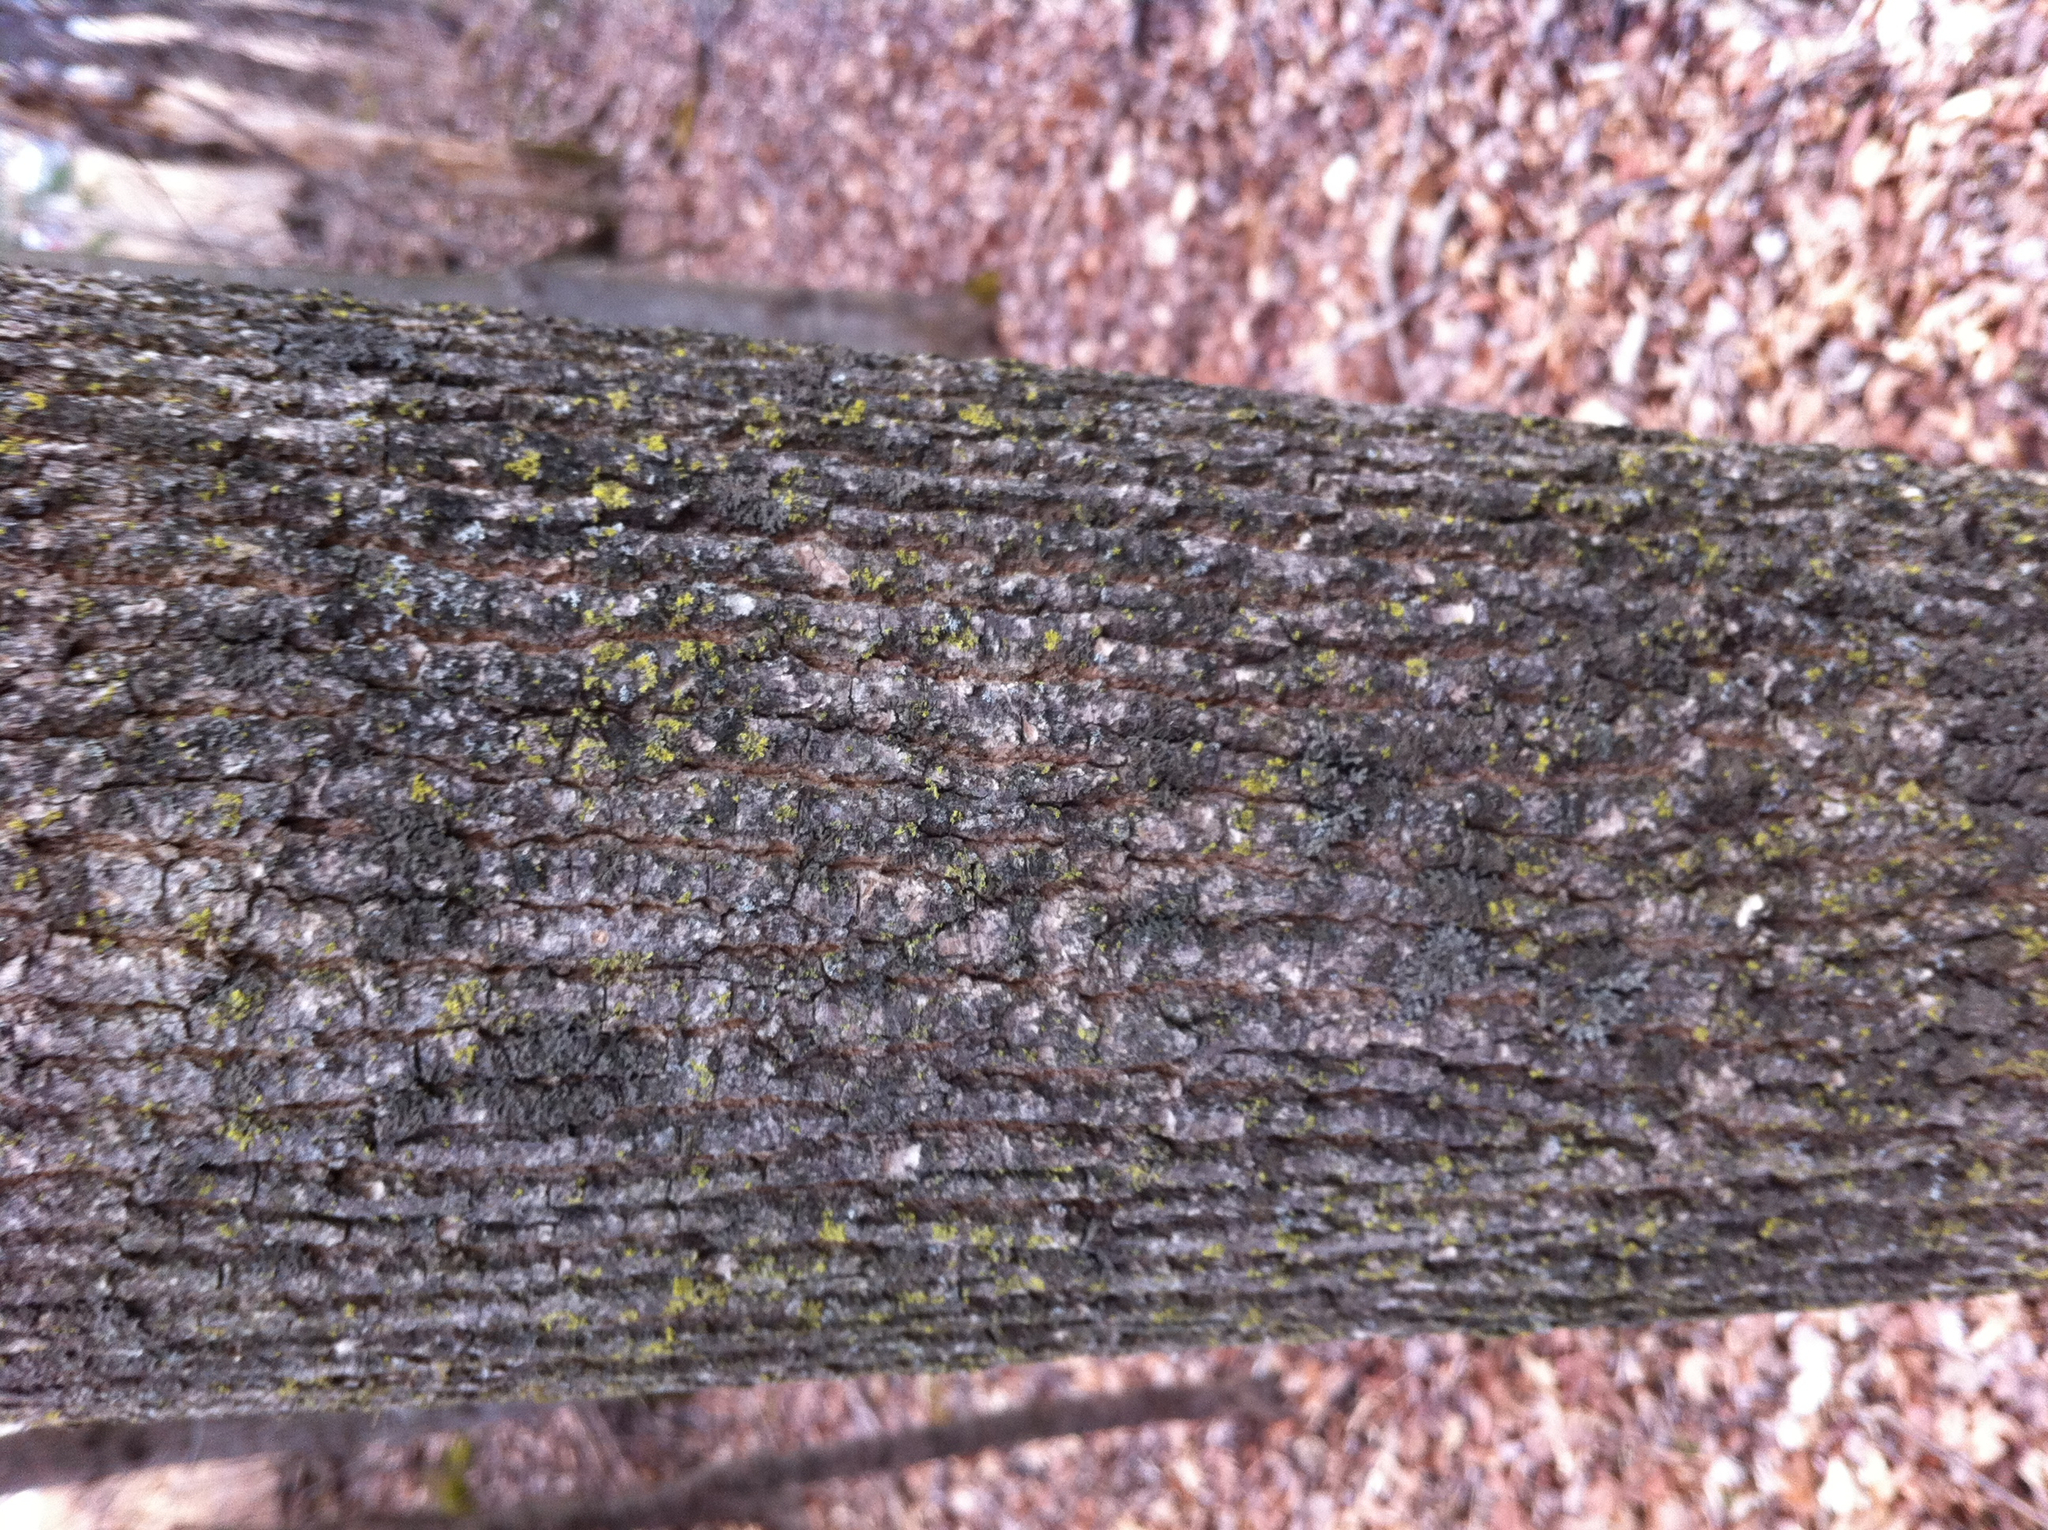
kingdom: Plantae
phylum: Tracheophyta
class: Magnoliopsida
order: Lamiales
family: Oleaceae
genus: Fraxinus
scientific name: Fraxinus americana
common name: White ash
